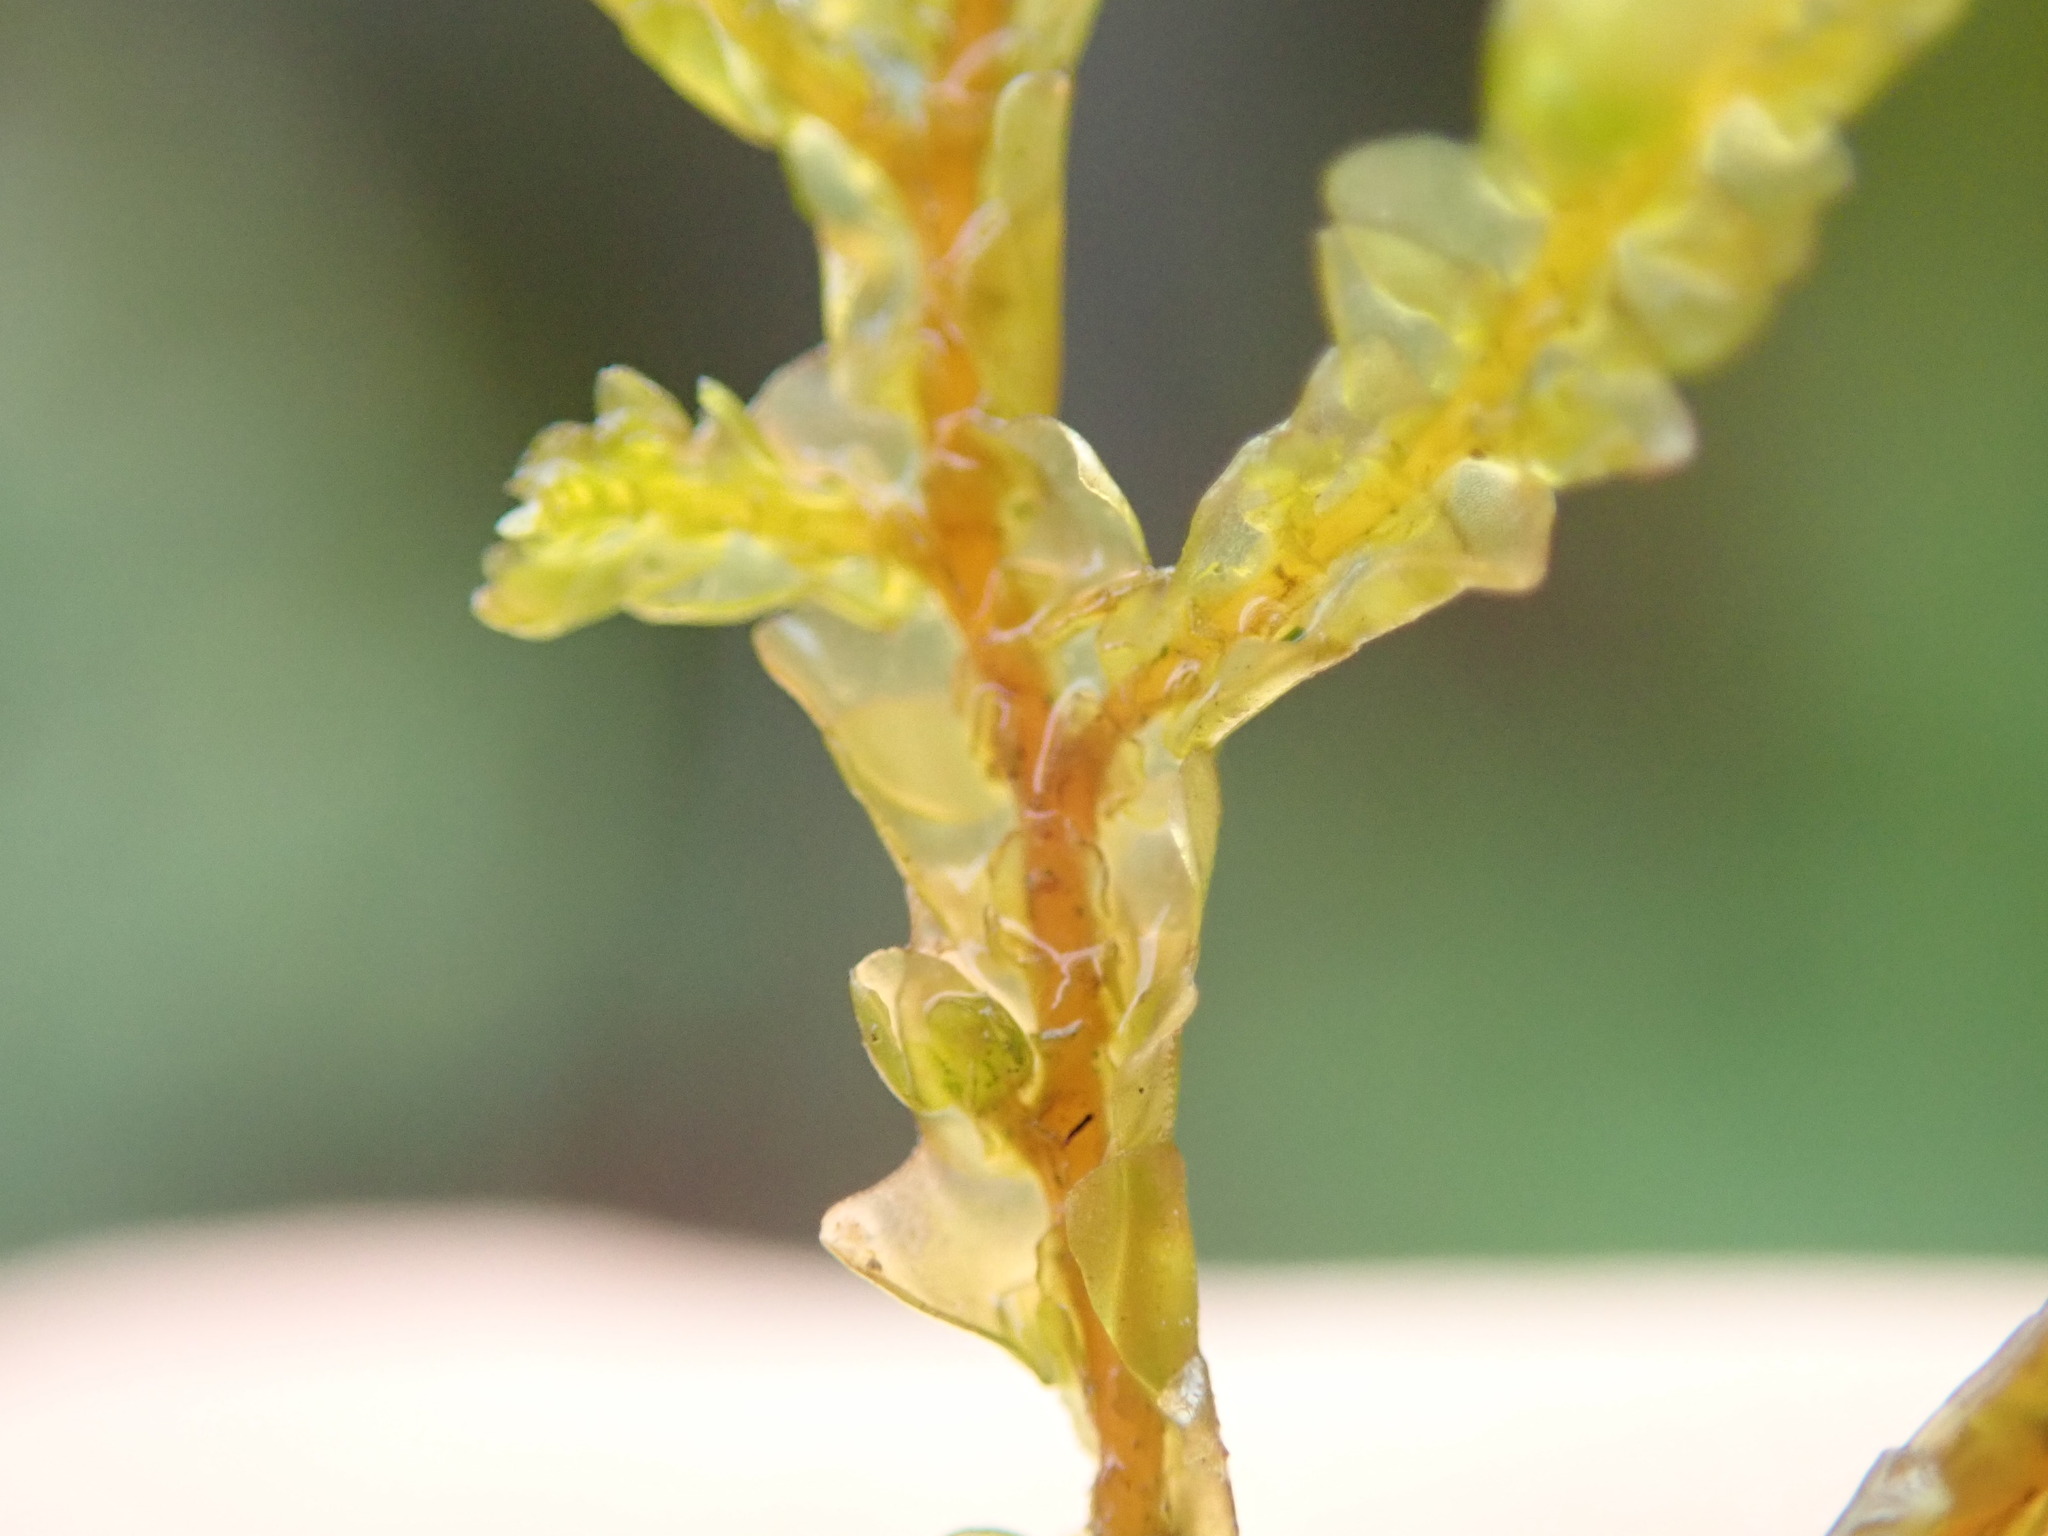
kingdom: Plantae
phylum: Marchantiophyta
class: Jungermanniopsida
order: Porellales
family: Porellaceae
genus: Porella
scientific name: Porella navicularis
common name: Tree ruffle liverwort
